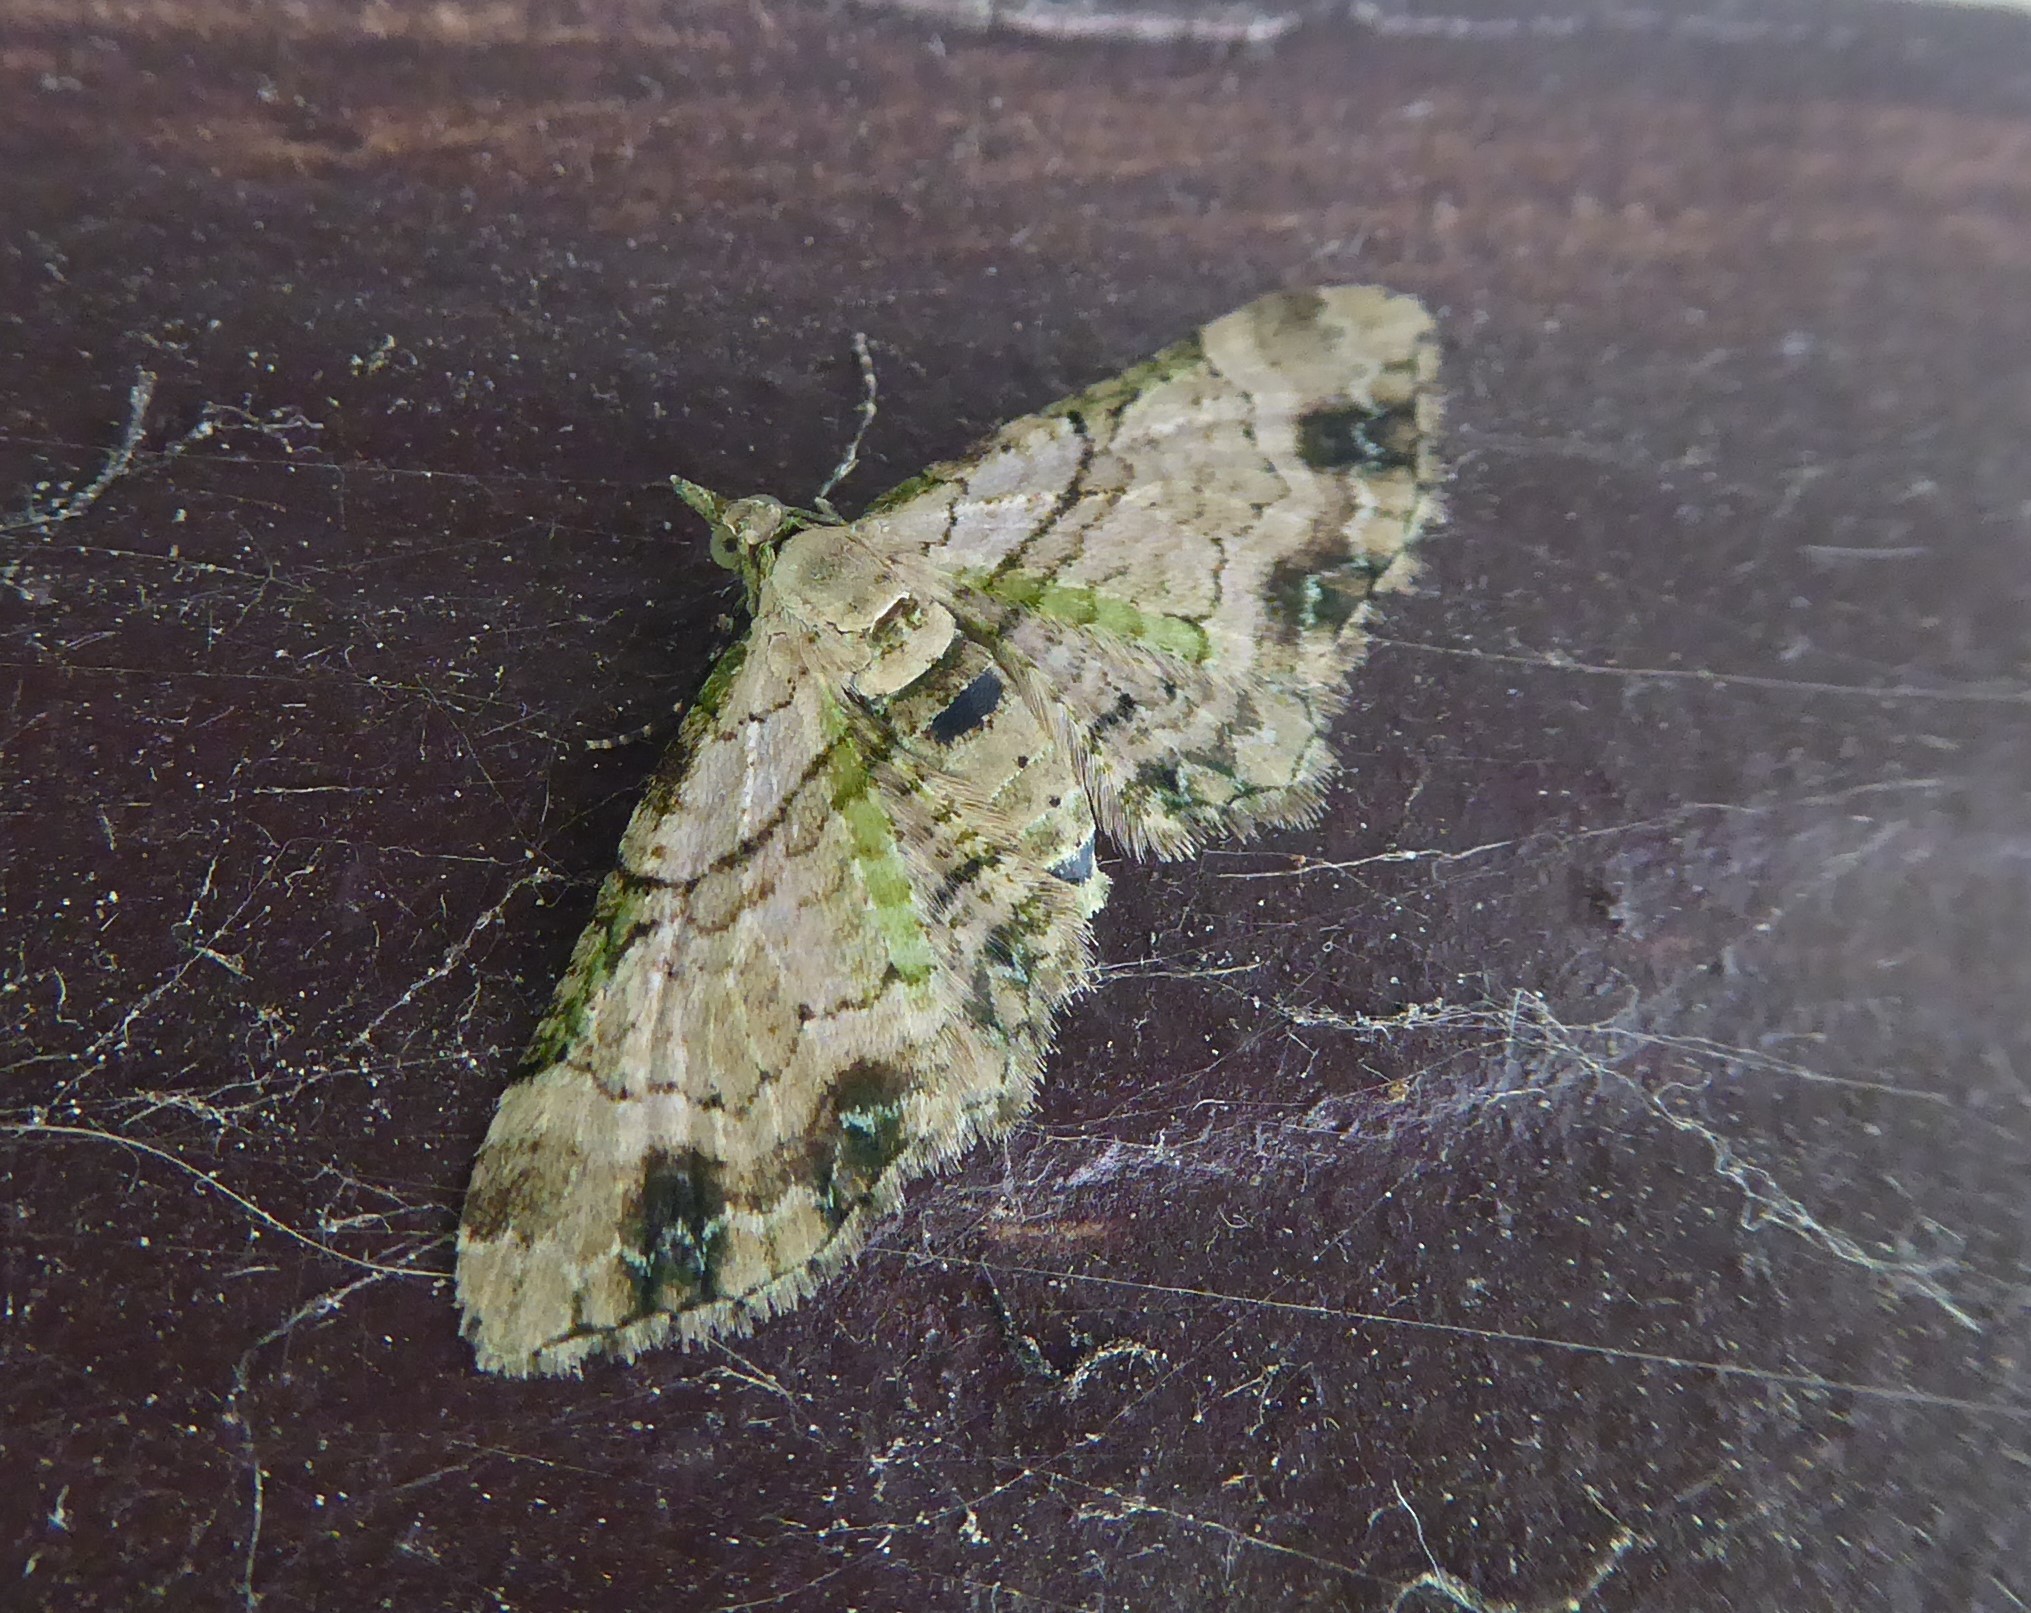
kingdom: Animalia
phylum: Arthropoda
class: Insecta
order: Lepidoptera
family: Geometridae
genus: Chloroclystis
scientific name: Chloroclystis
